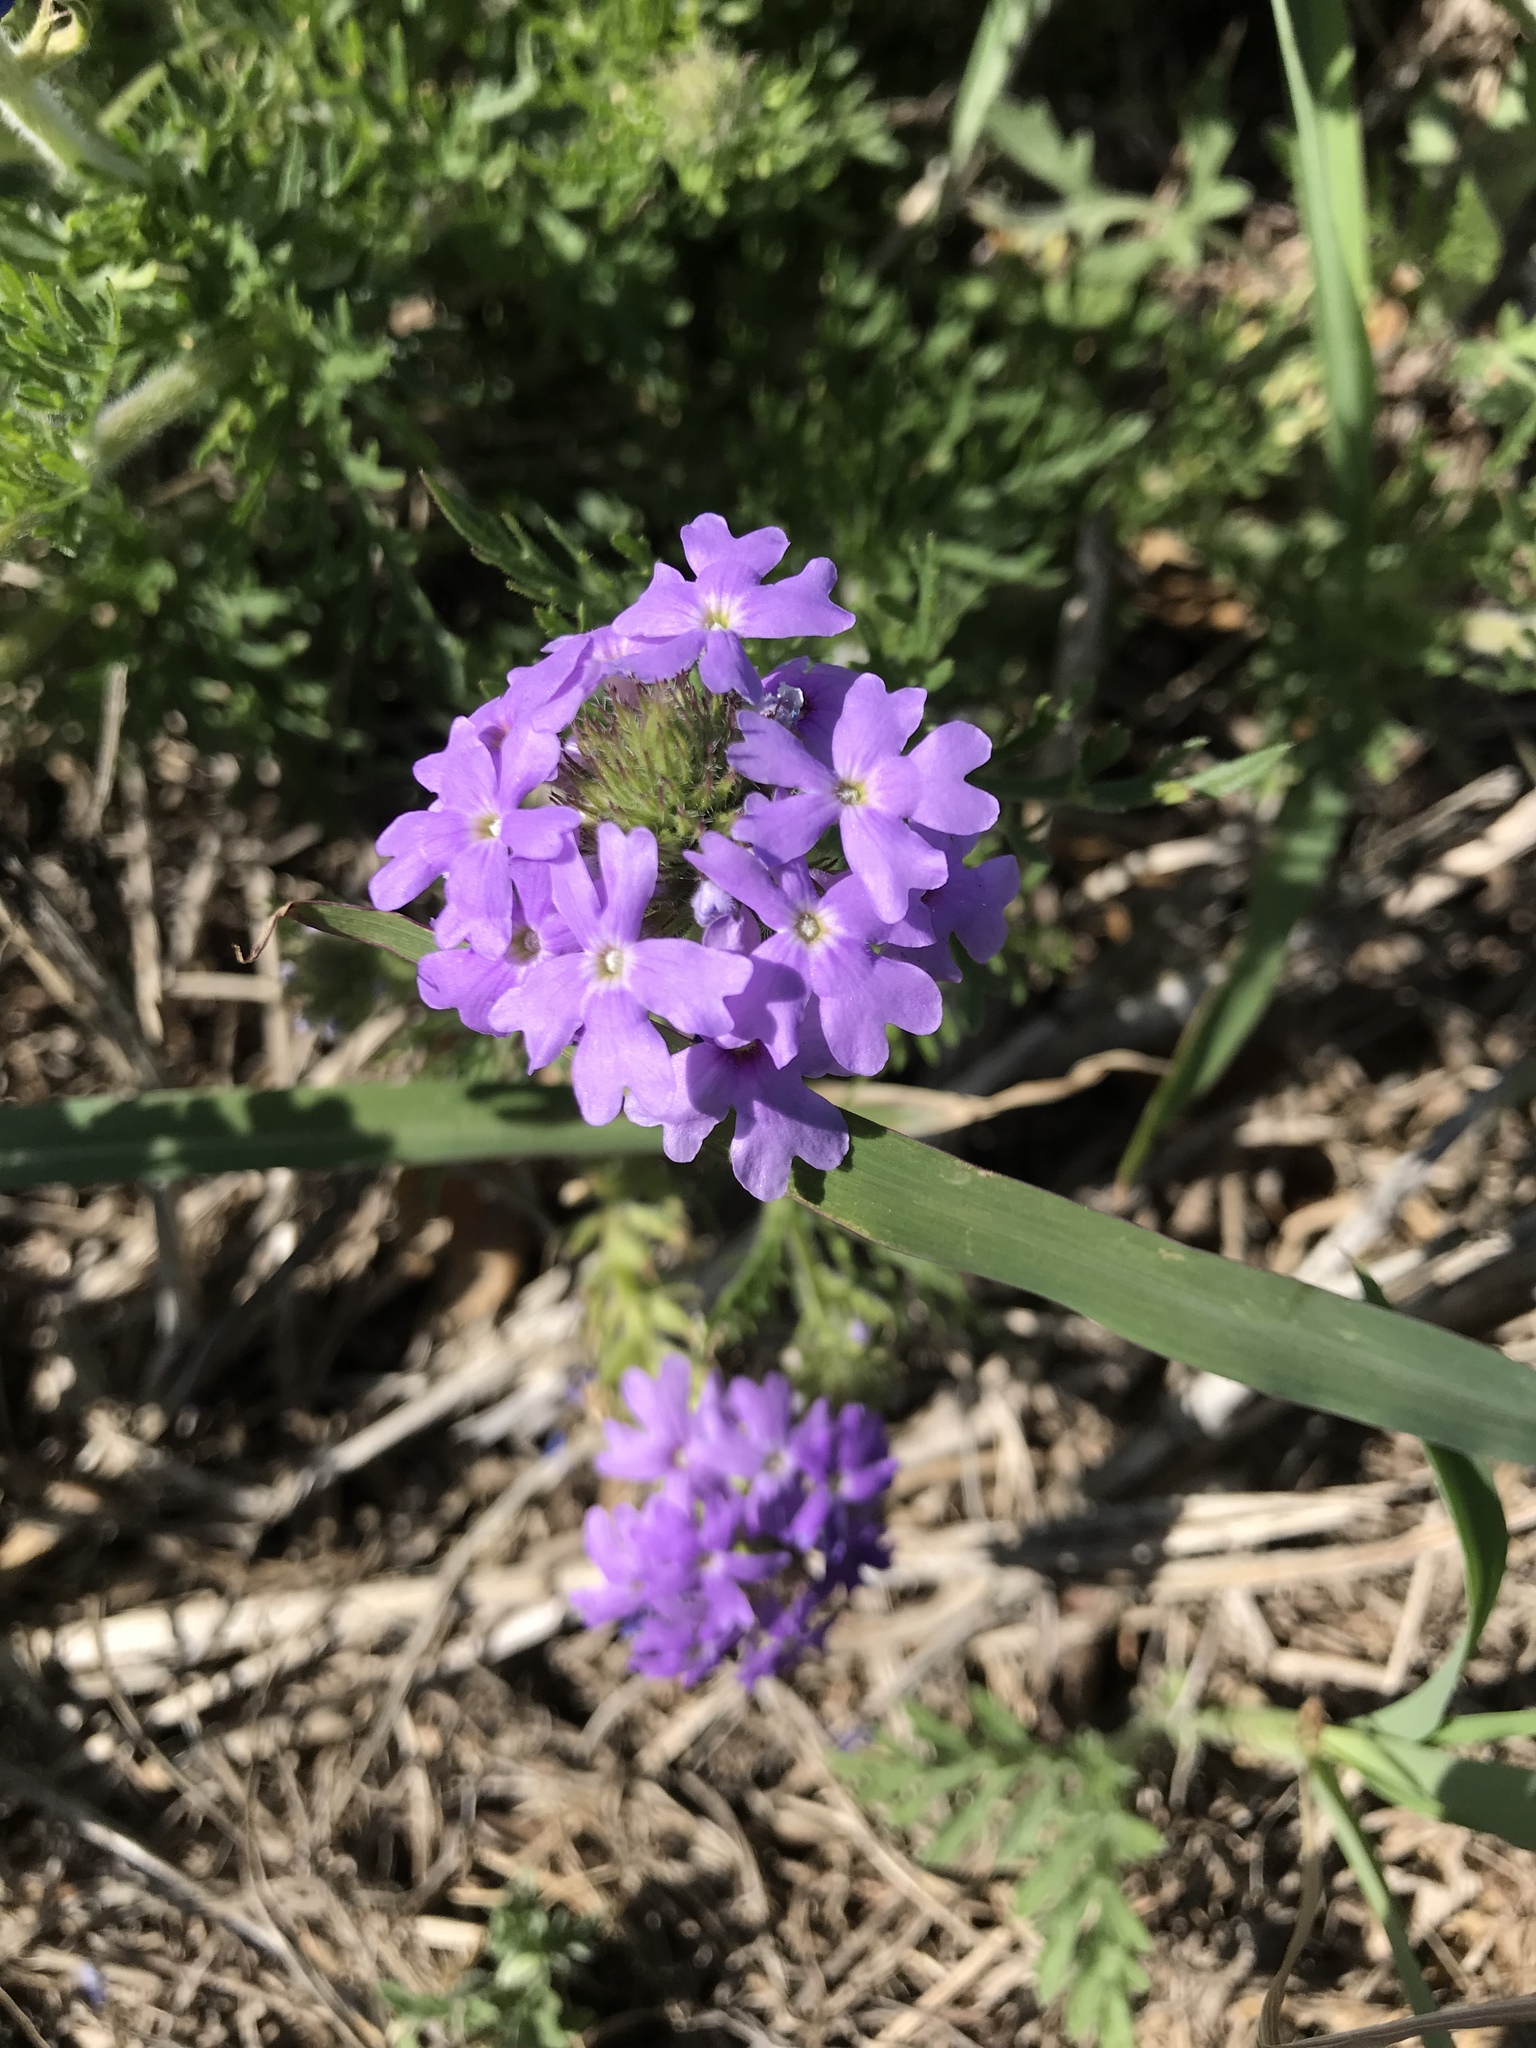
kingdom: Plantae
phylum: Tracheophyta
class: Magnoliopsida
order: Lamiales
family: Verbenaceae
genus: Verbena
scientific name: Verbena bipinnatifida
